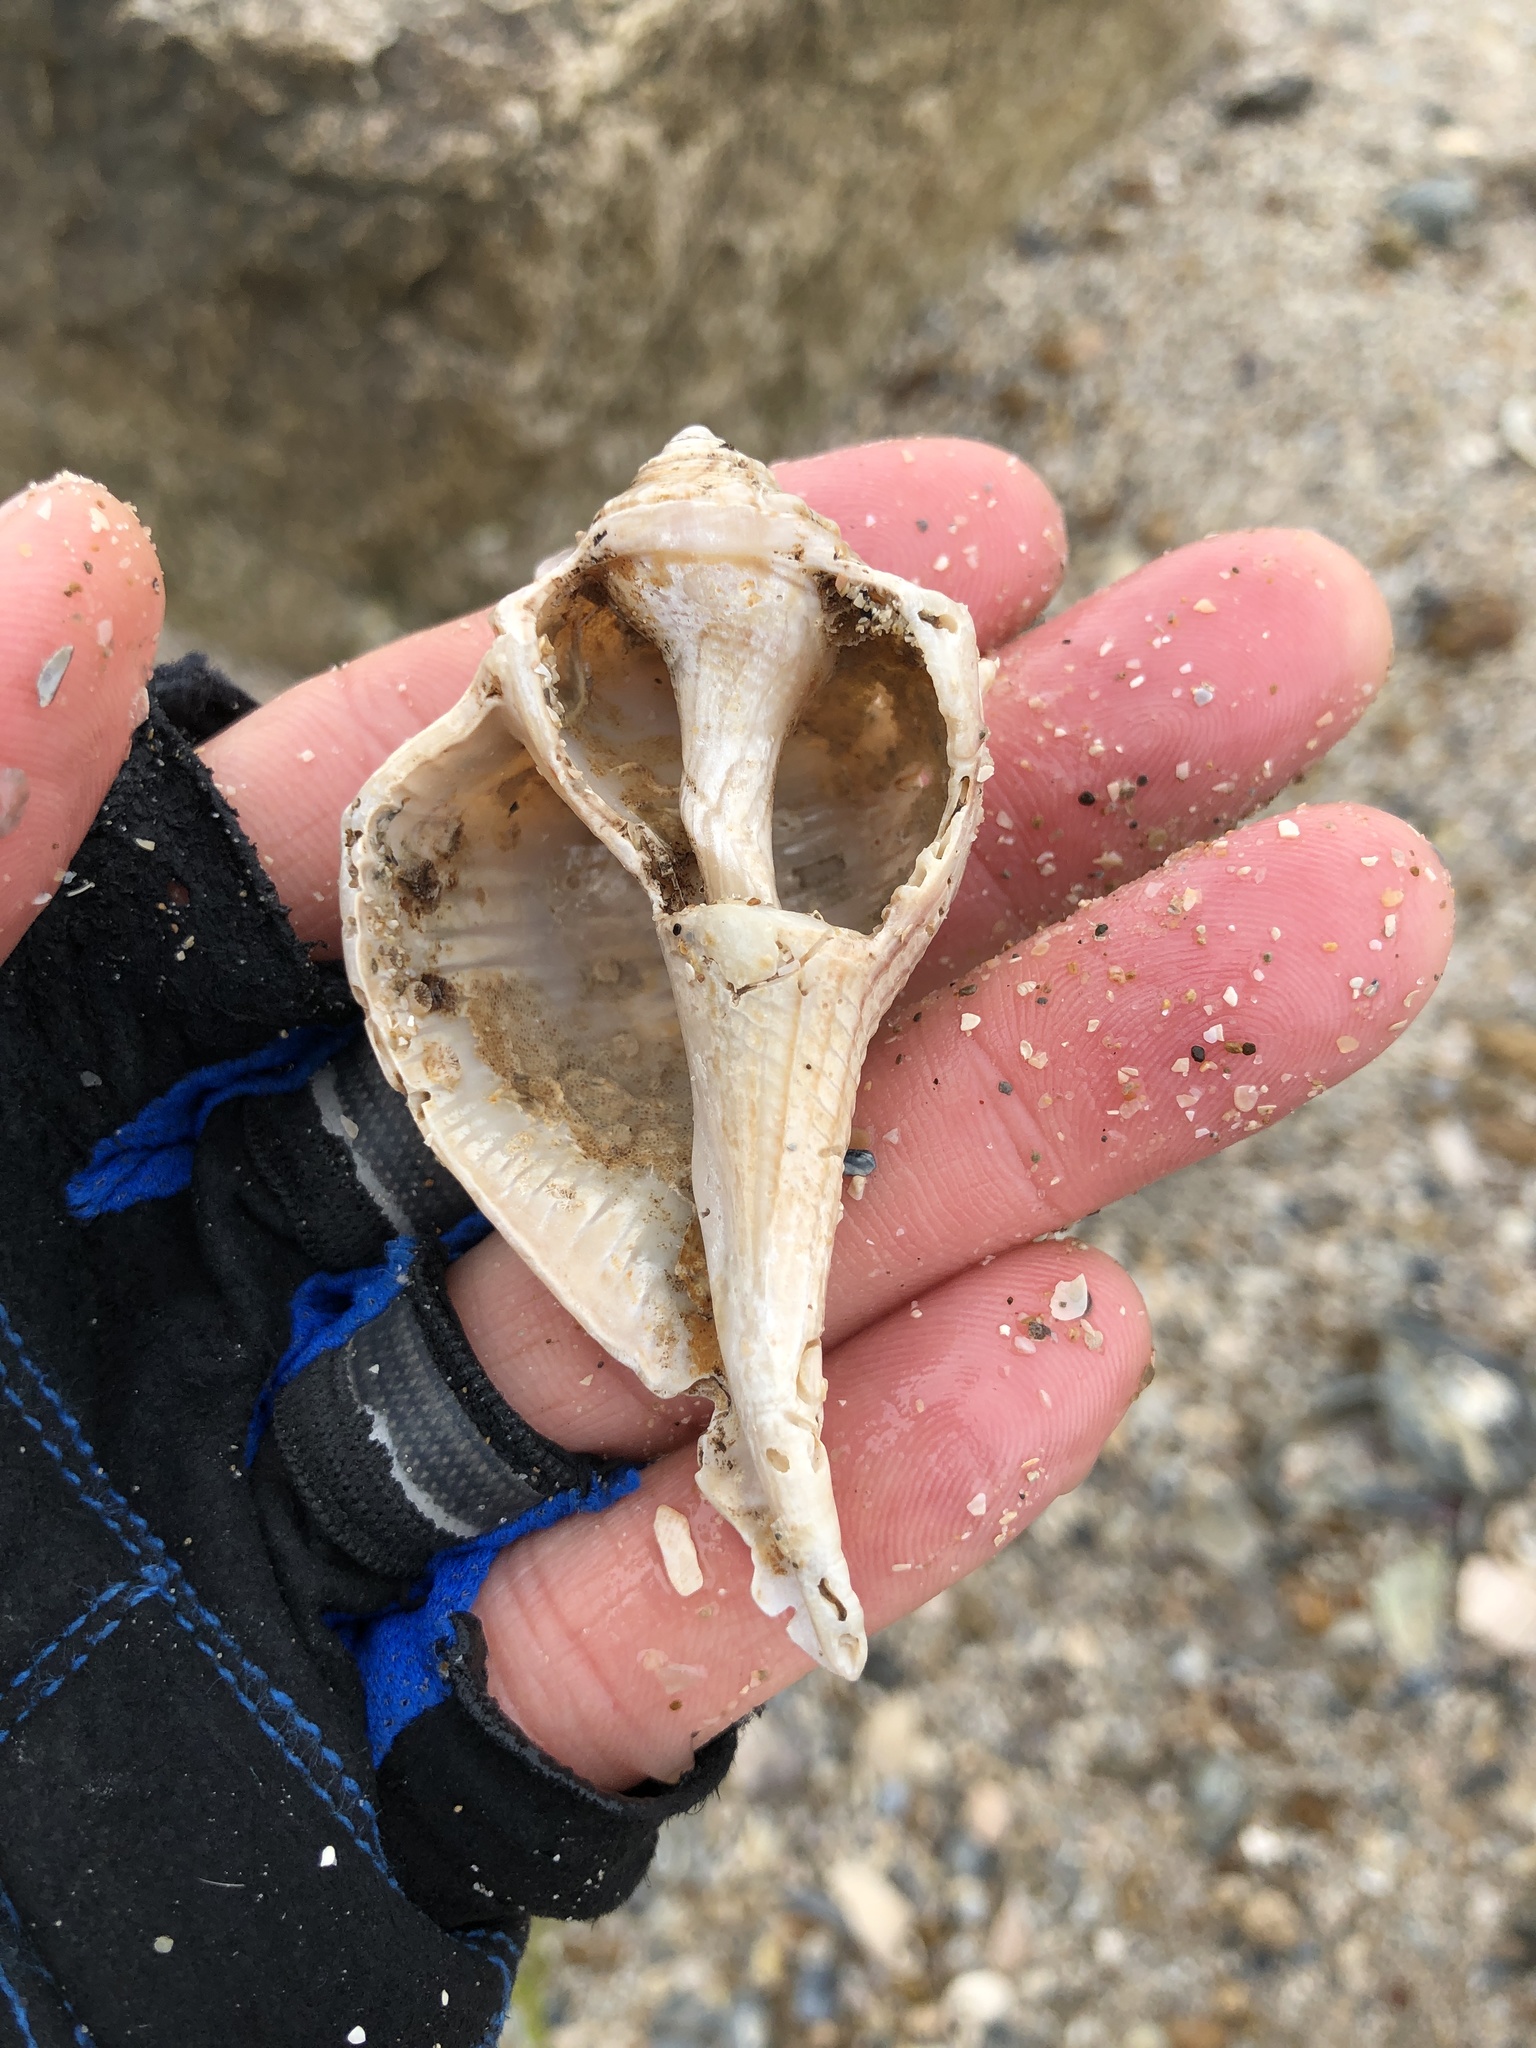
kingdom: Animalia
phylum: Mollusca
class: Gastropoda
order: Neogastropoda
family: Busyconidae
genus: Sinistrofulgur
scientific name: Sinistrofulgur pulleyi
